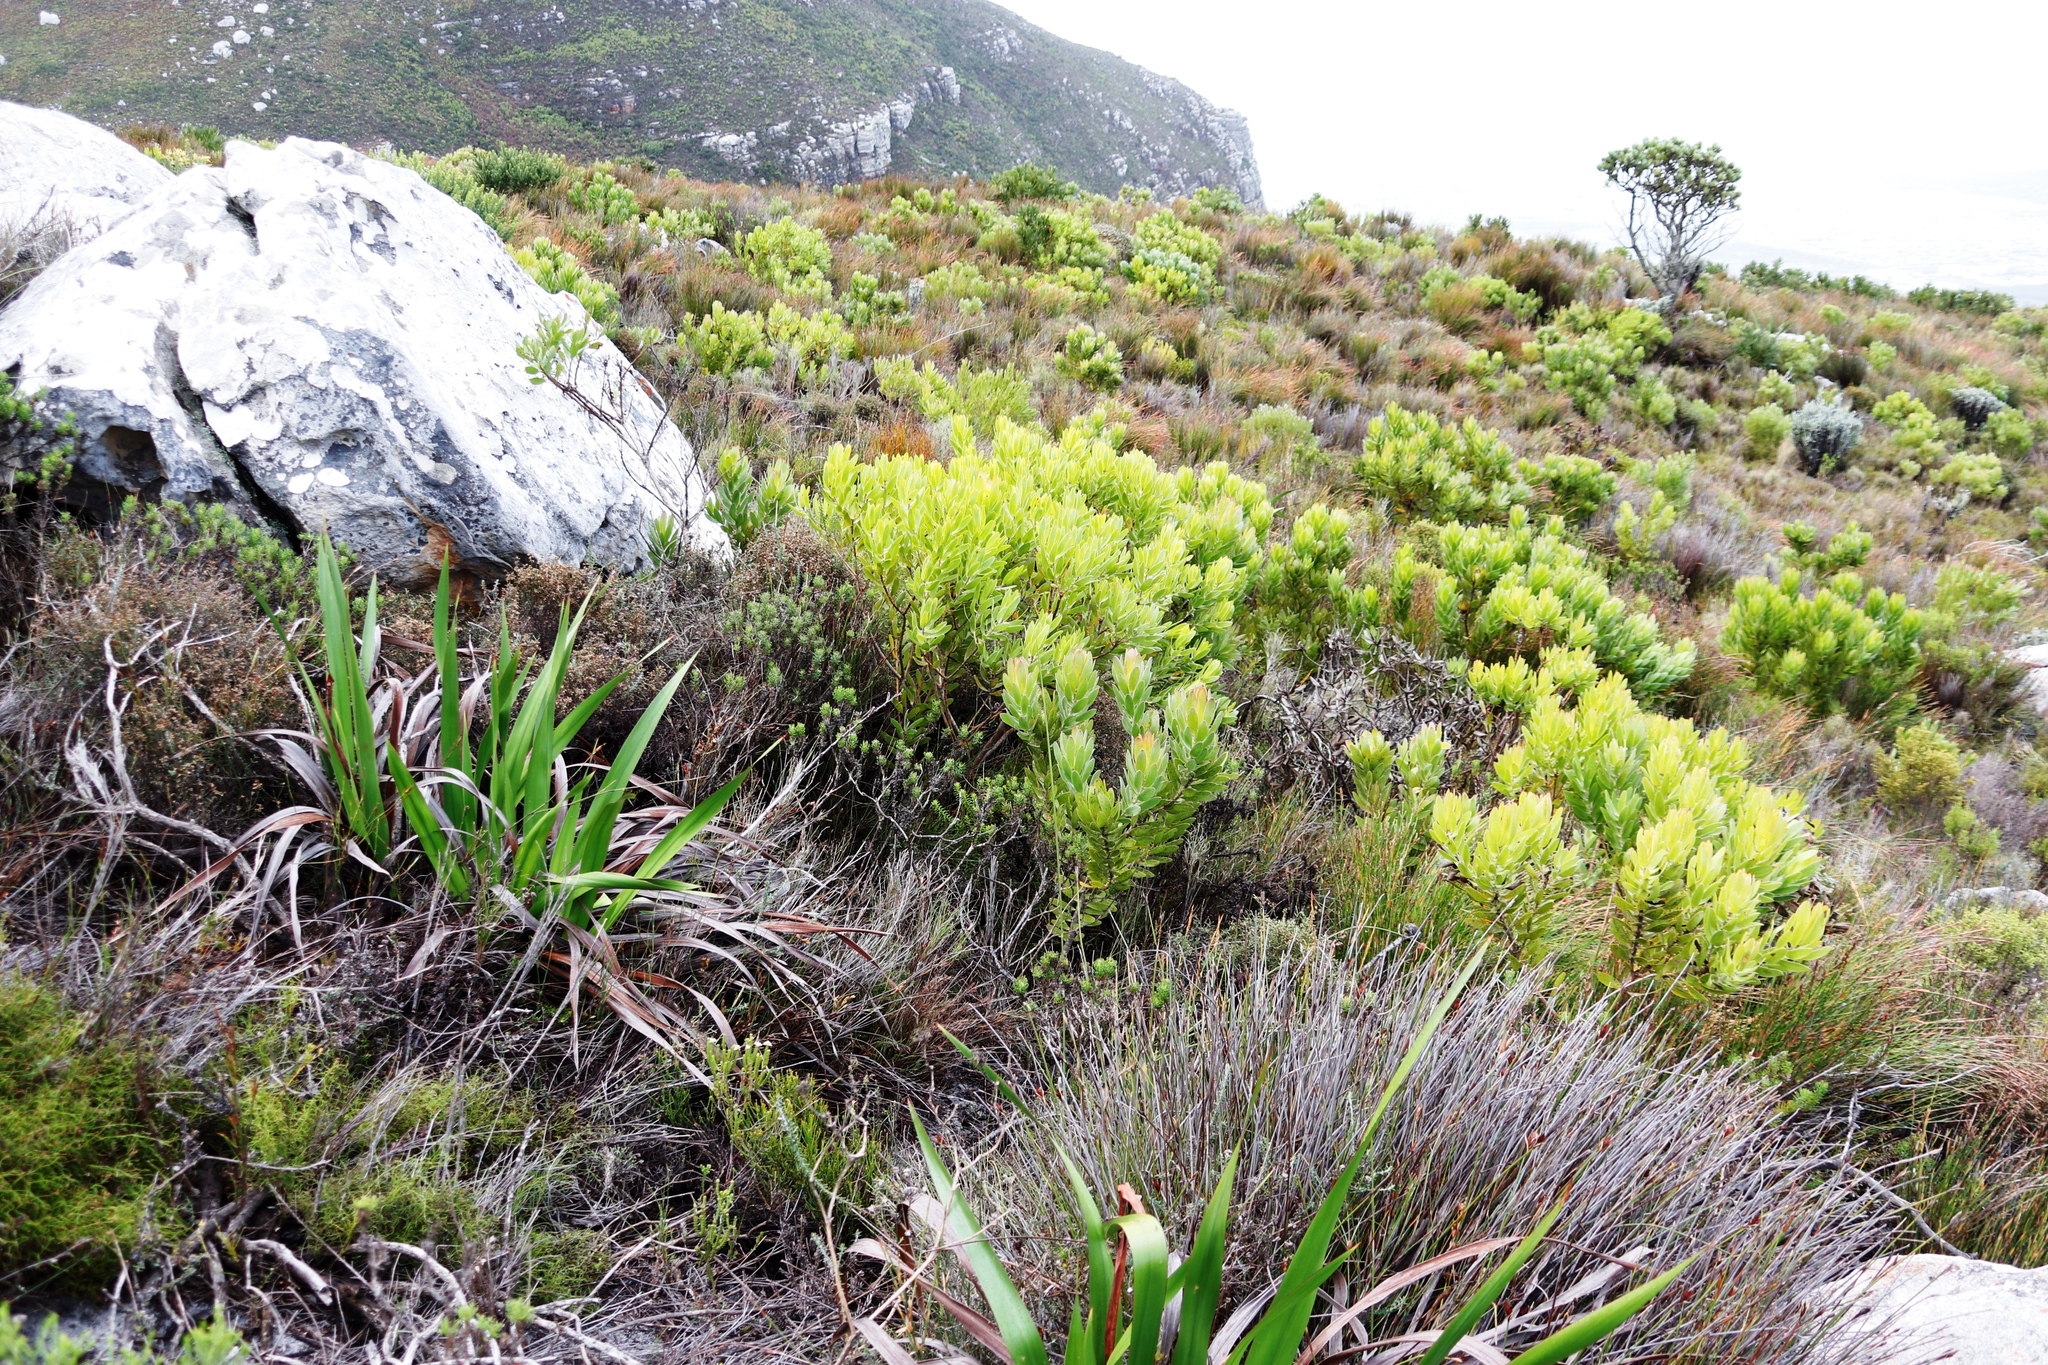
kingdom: Plantae
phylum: Tracheophyta
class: Magnoliopsida
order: Proteales
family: Proteaceae
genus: Leucadendron
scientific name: Leucadendron laureolum
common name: Golden sunshinebush
